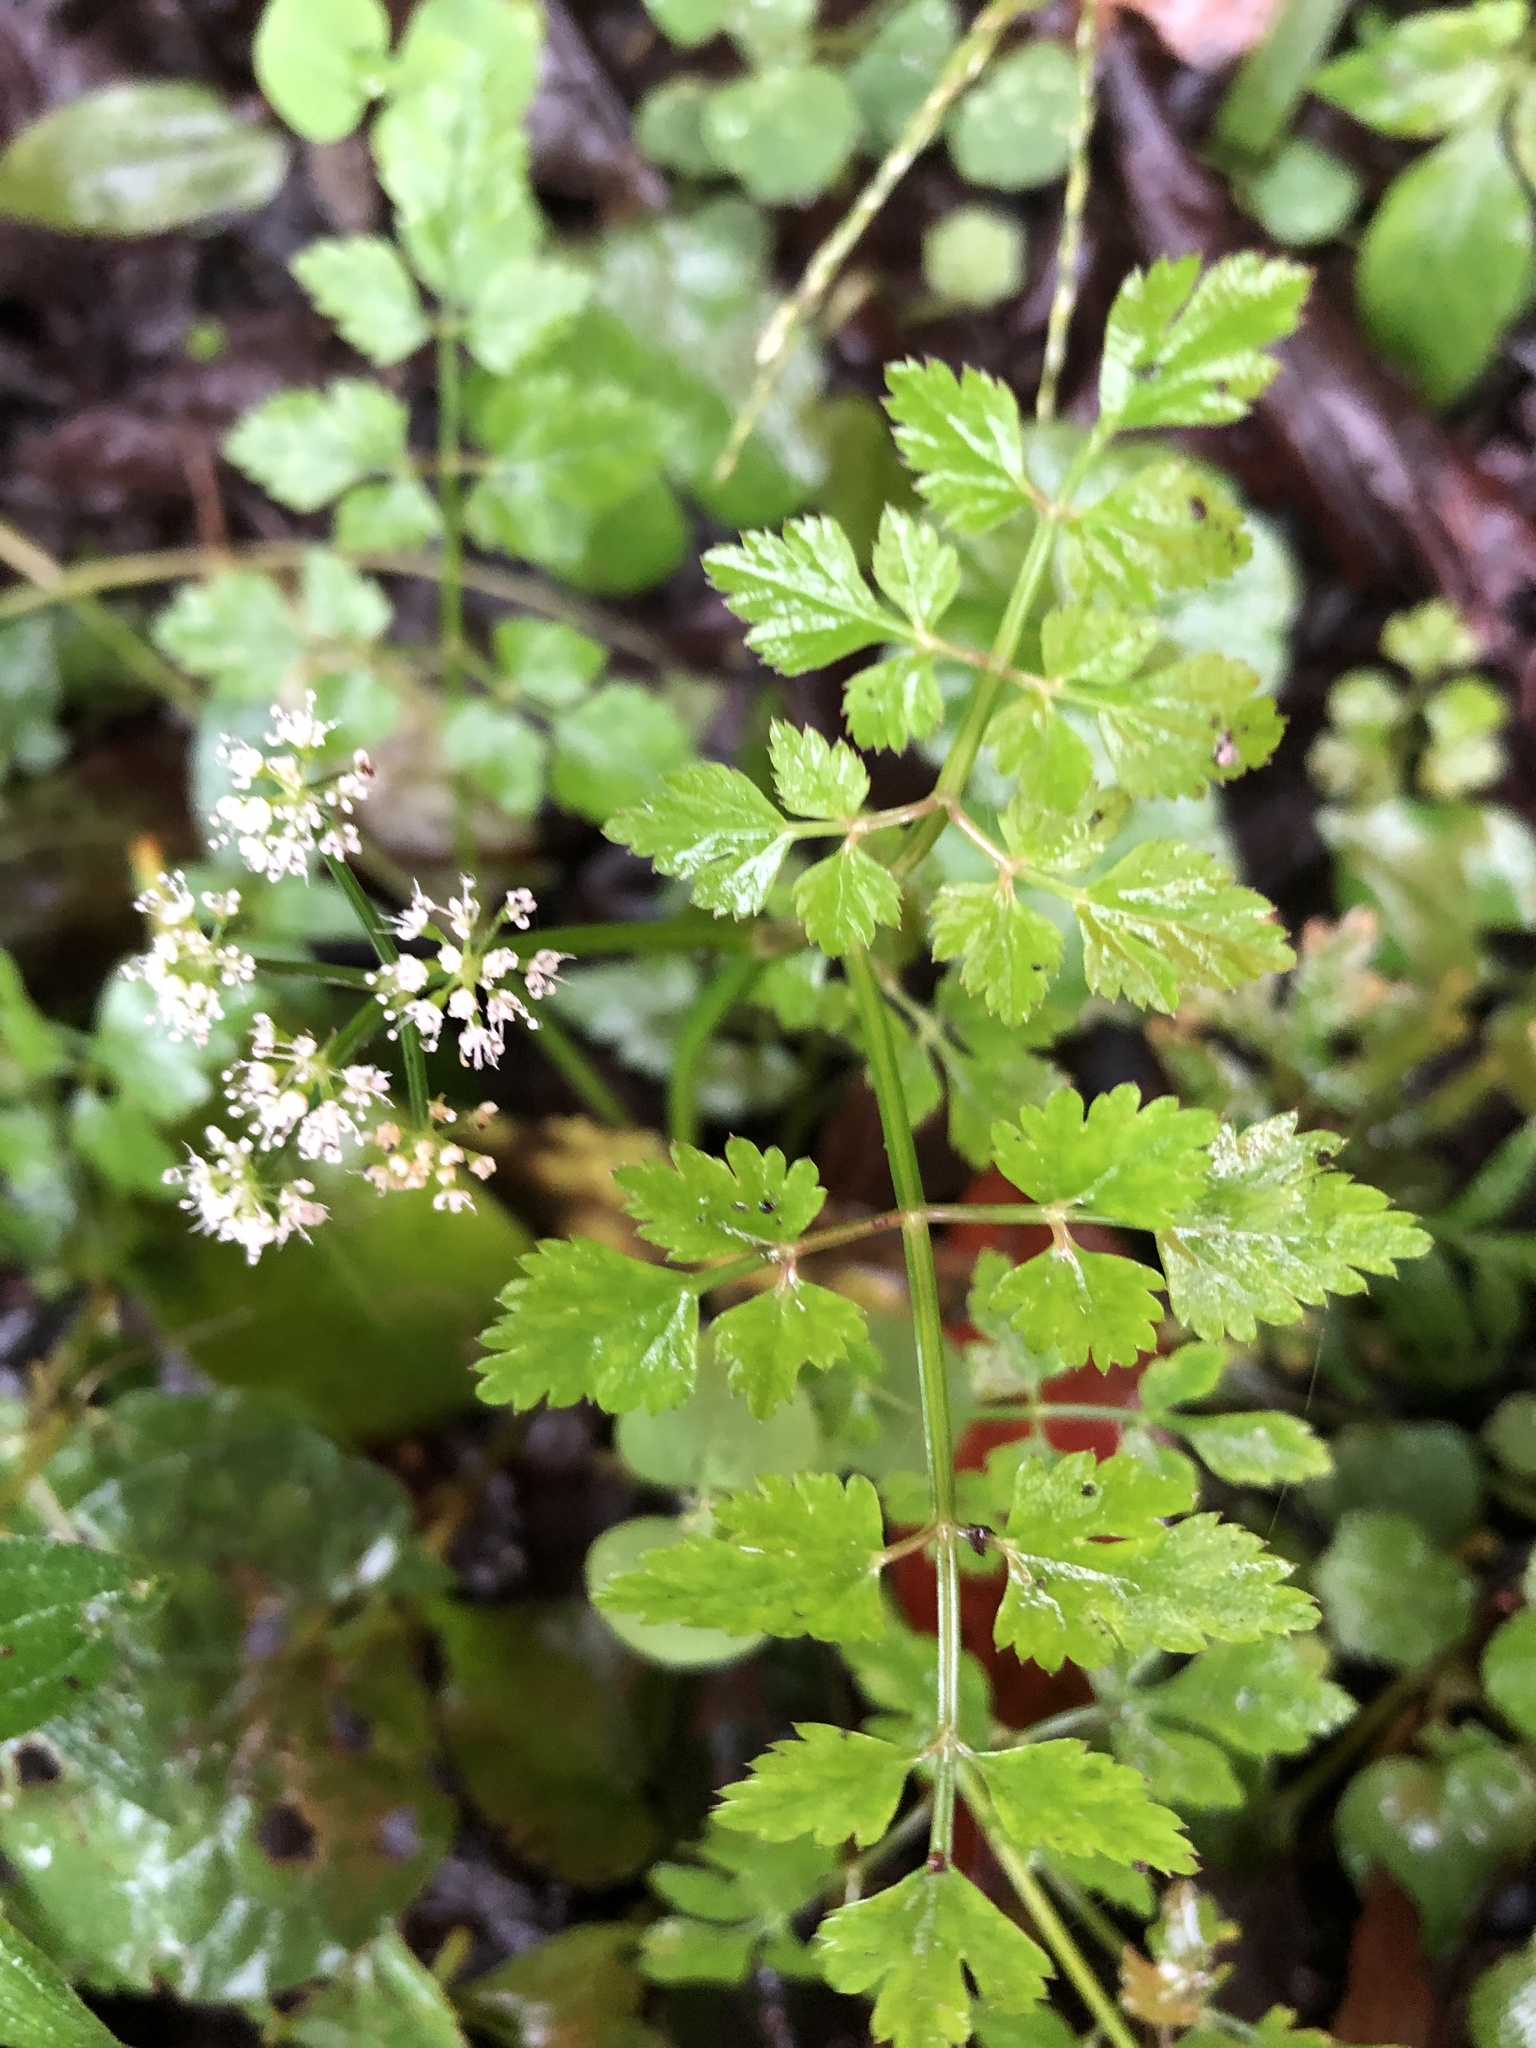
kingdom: Plantae
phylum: Tracheophyta
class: Magnoliopsida
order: Apiales
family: Apiaceae
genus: Oenanthe
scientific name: Oenanthe javanica
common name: Java water-dropwort
